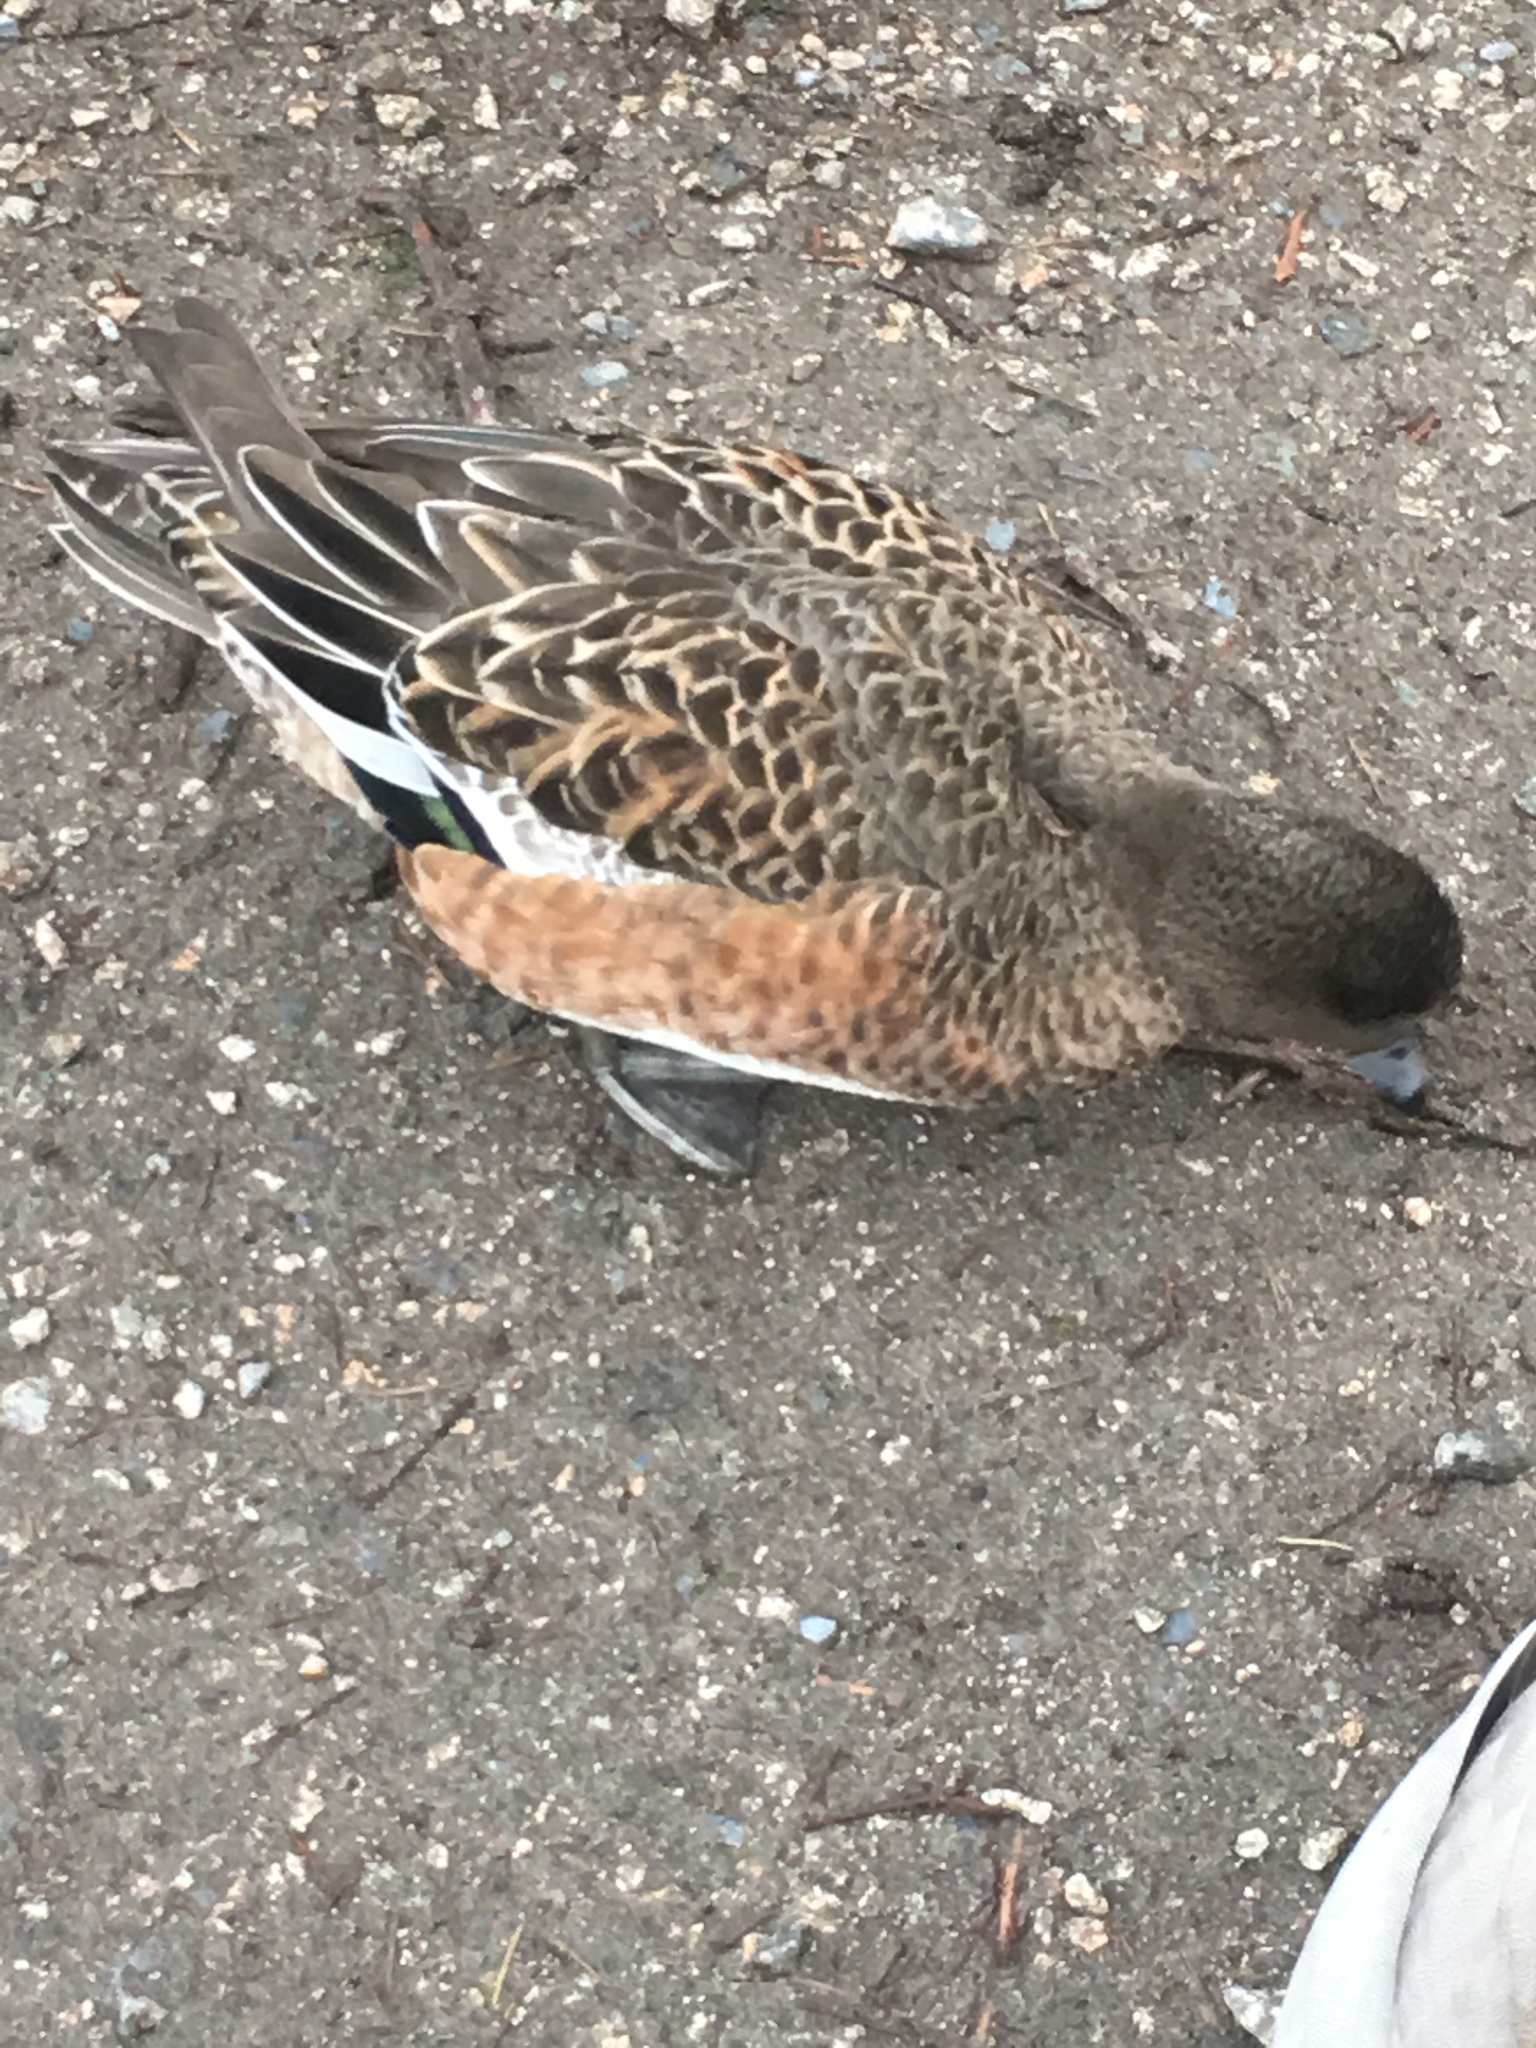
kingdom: Animalia
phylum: Chordata
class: Aves
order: Anseriformes
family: Anatidae
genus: Mareca
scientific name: Mareca americana
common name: American wigeon
